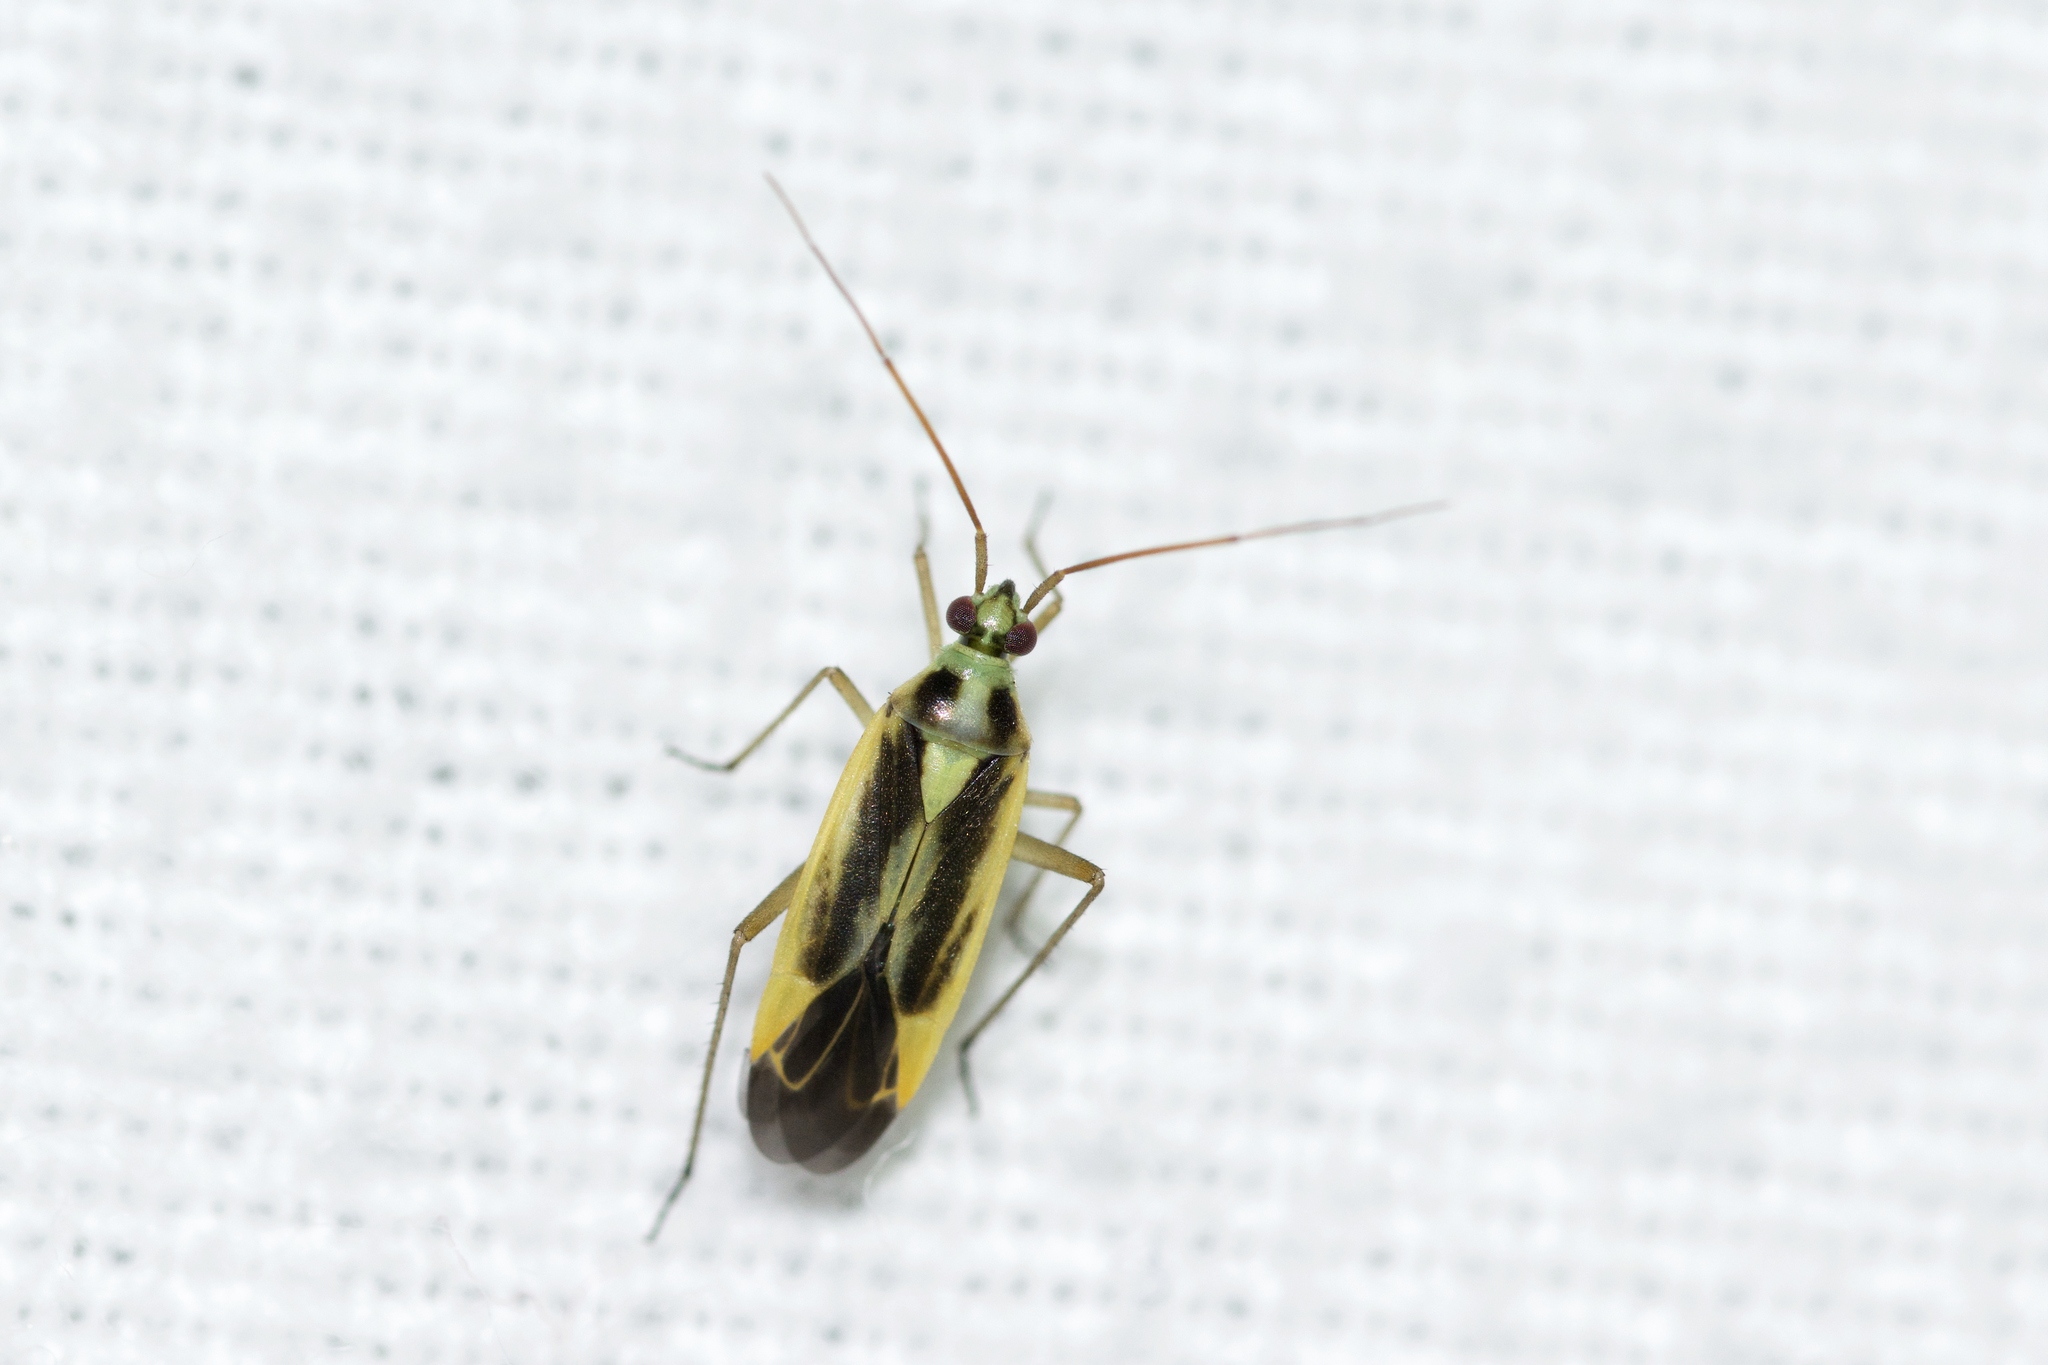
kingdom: Animalia
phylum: Arthropoda
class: Insecta
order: Hemiptera
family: Miridae
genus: Stenotus
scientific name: Stenotus binotatus
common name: Plant bug
